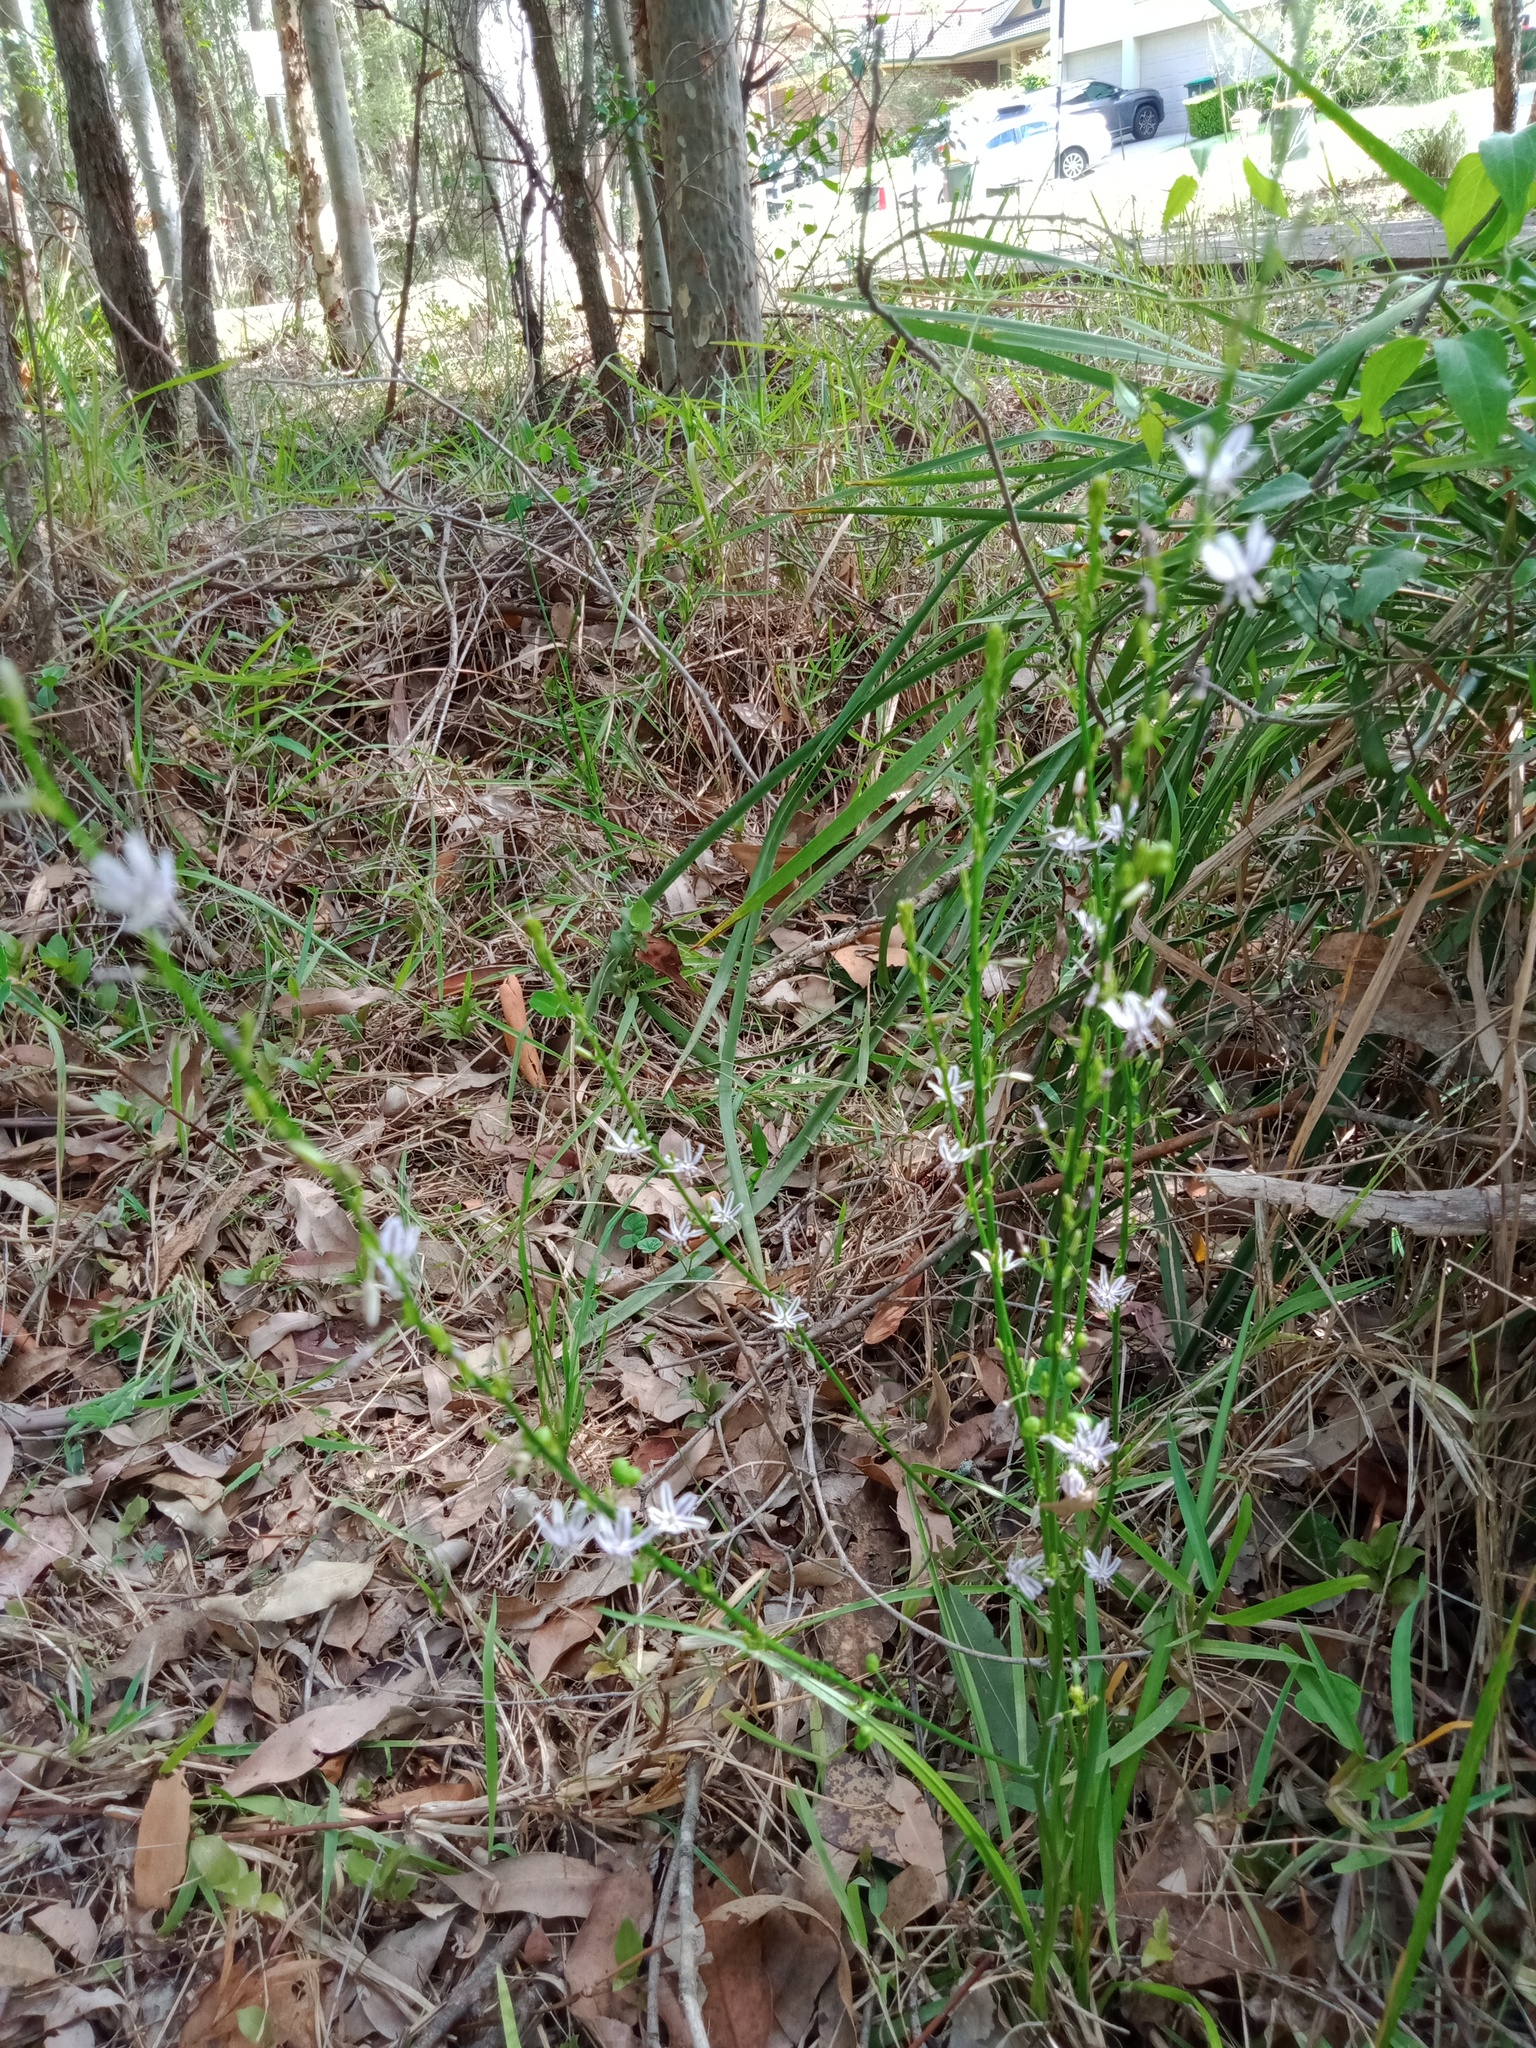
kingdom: Plantae
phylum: Tracheophyta
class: Liliopsida
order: Asparagales
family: Asphodelaceae
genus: Caesia
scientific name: Caesia parviflora
